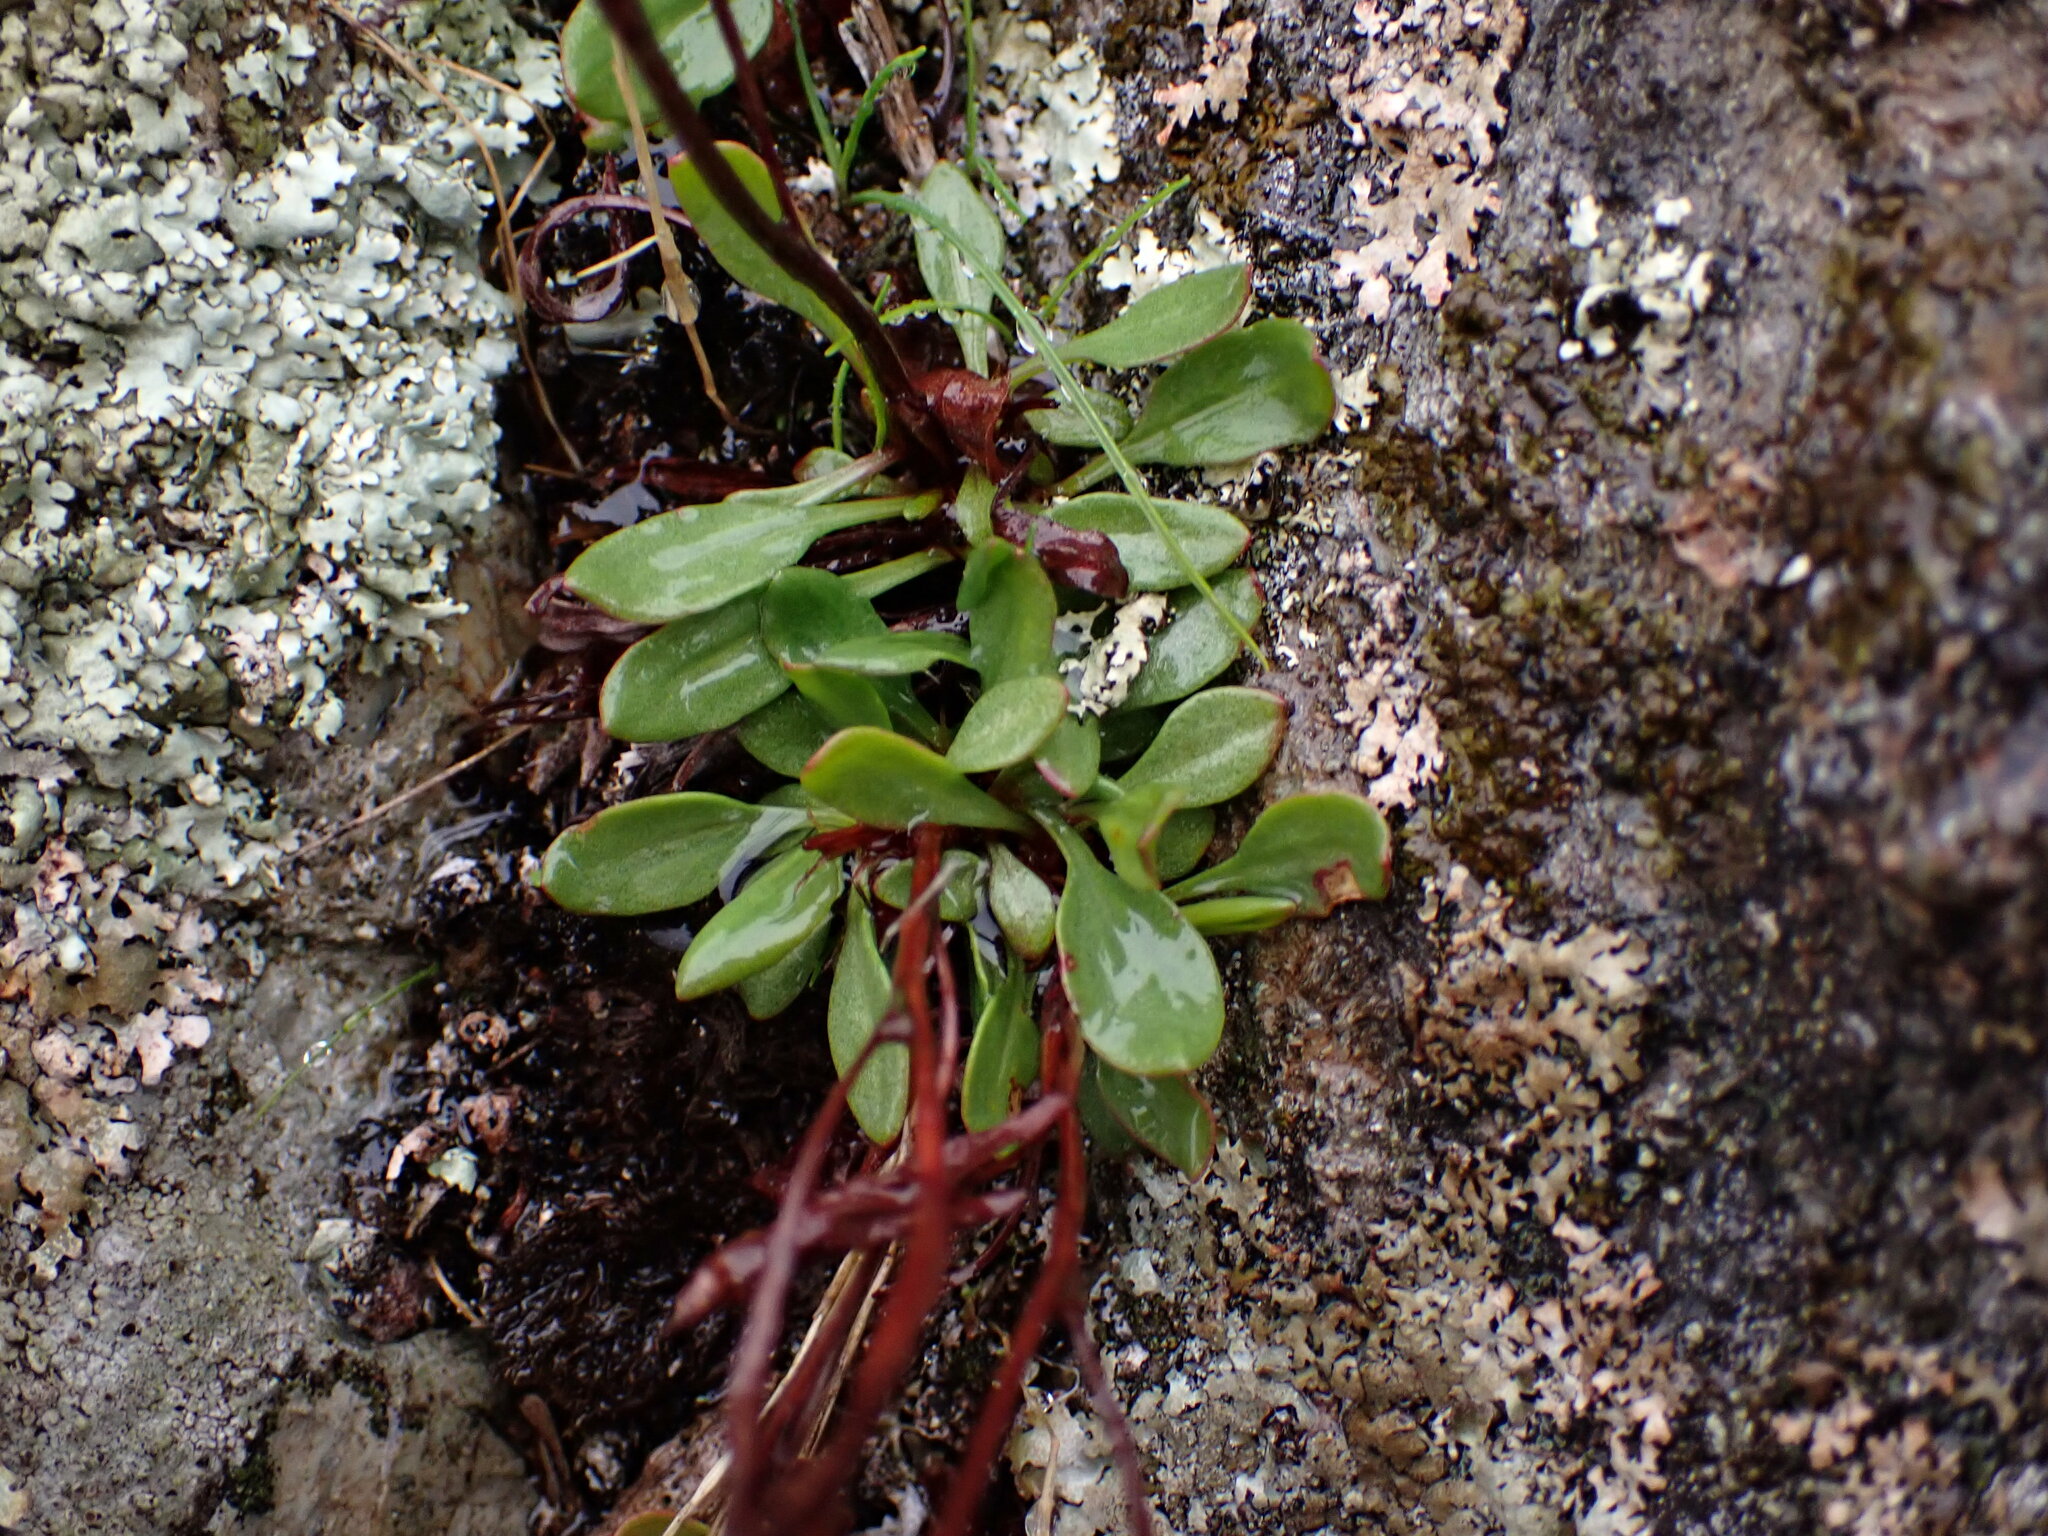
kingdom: Plantae
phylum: Tracheophyta
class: Magnoliopsida
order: Caryophyllales
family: Polygonaceae
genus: Rumex
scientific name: Rumex acetosella
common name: Common sheep sorrel
